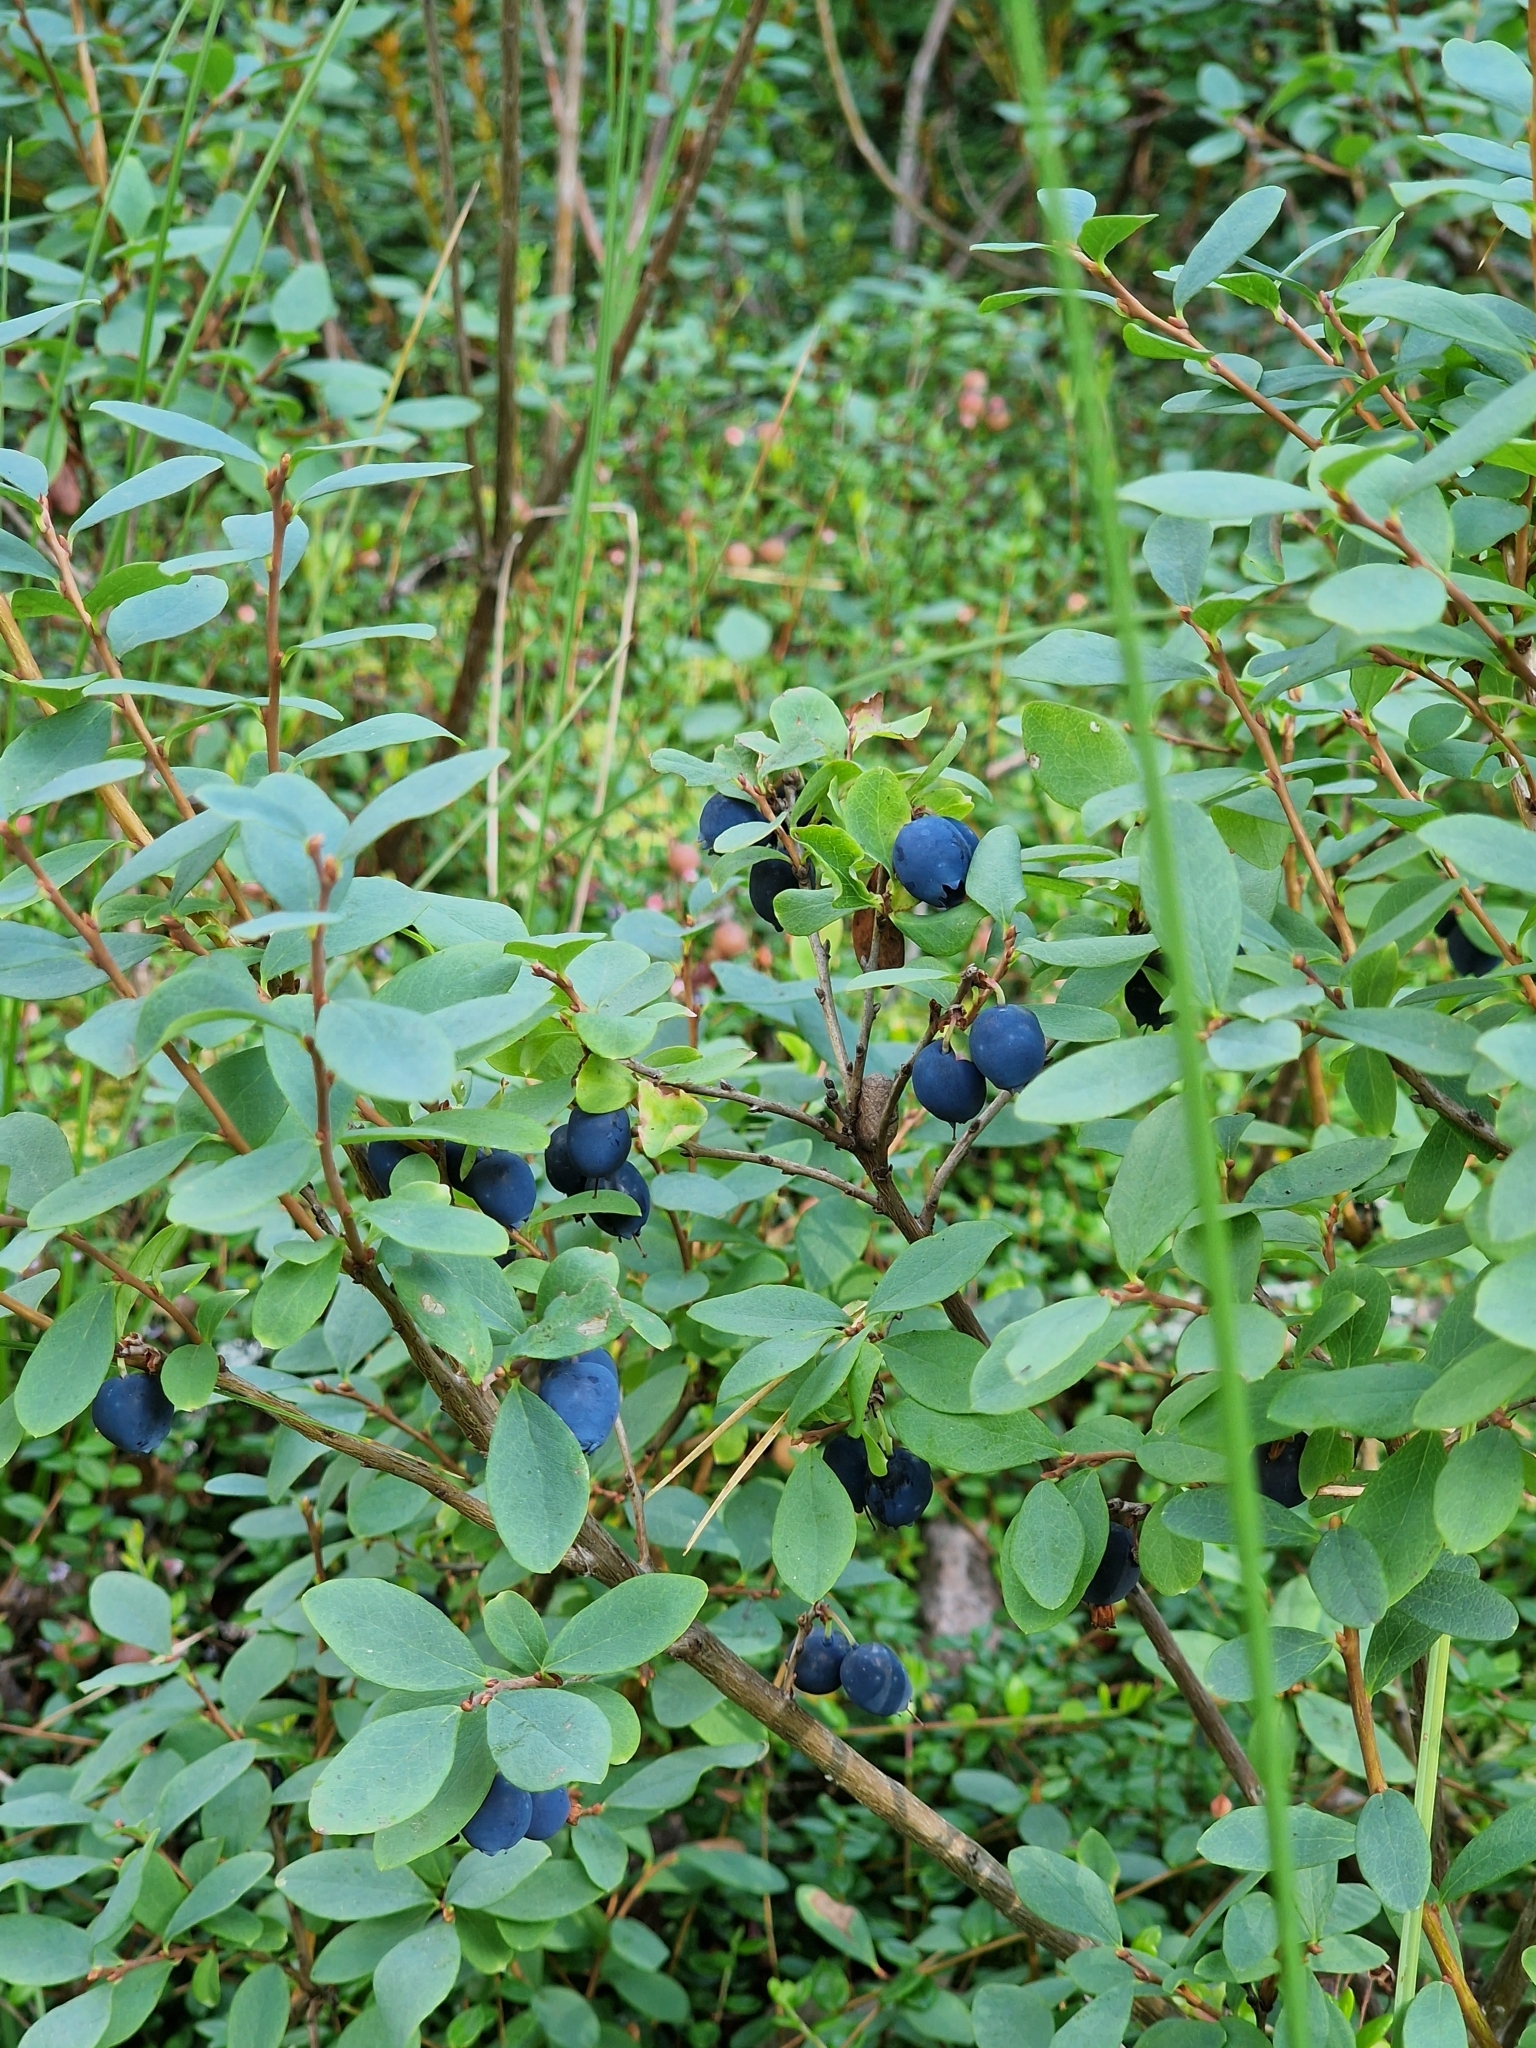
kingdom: Plantae
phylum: Tracheophyta
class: Magnoliopsida
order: Ericales
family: Ericaceae
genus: Vaccinium
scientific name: Vaccinium uliginosum
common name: Bog bilberry
